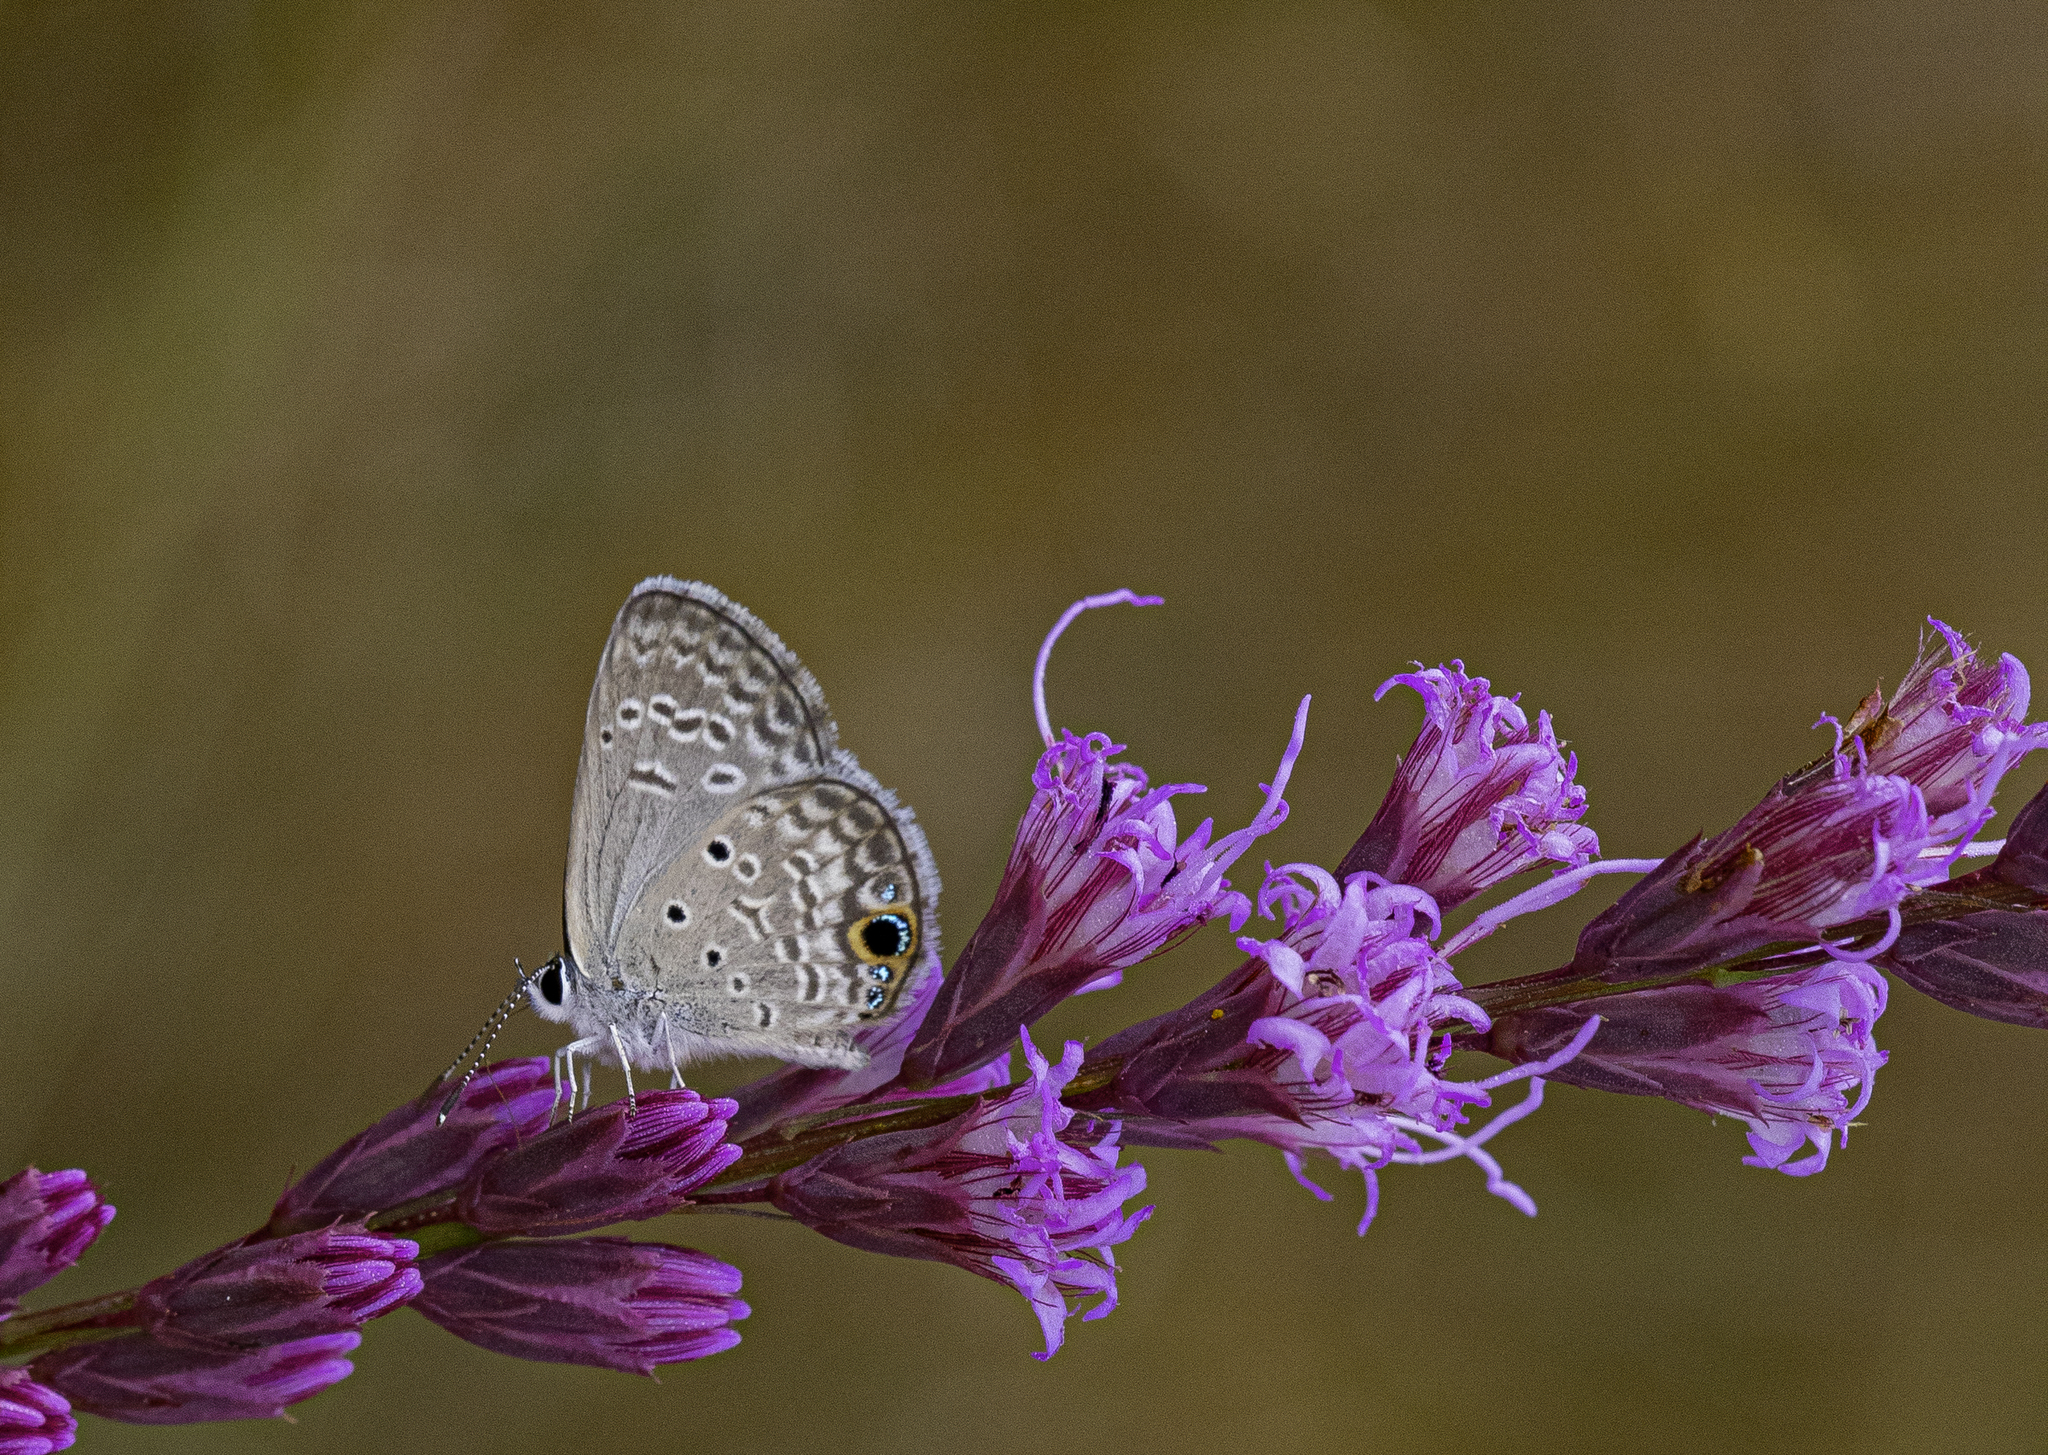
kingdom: Animalia
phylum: Arthropoda
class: Insecta
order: Lepidoptera
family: Lycaenidae
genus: Hemiargus
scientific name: Hemiargus ceraunus
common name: Ceraunus blue
